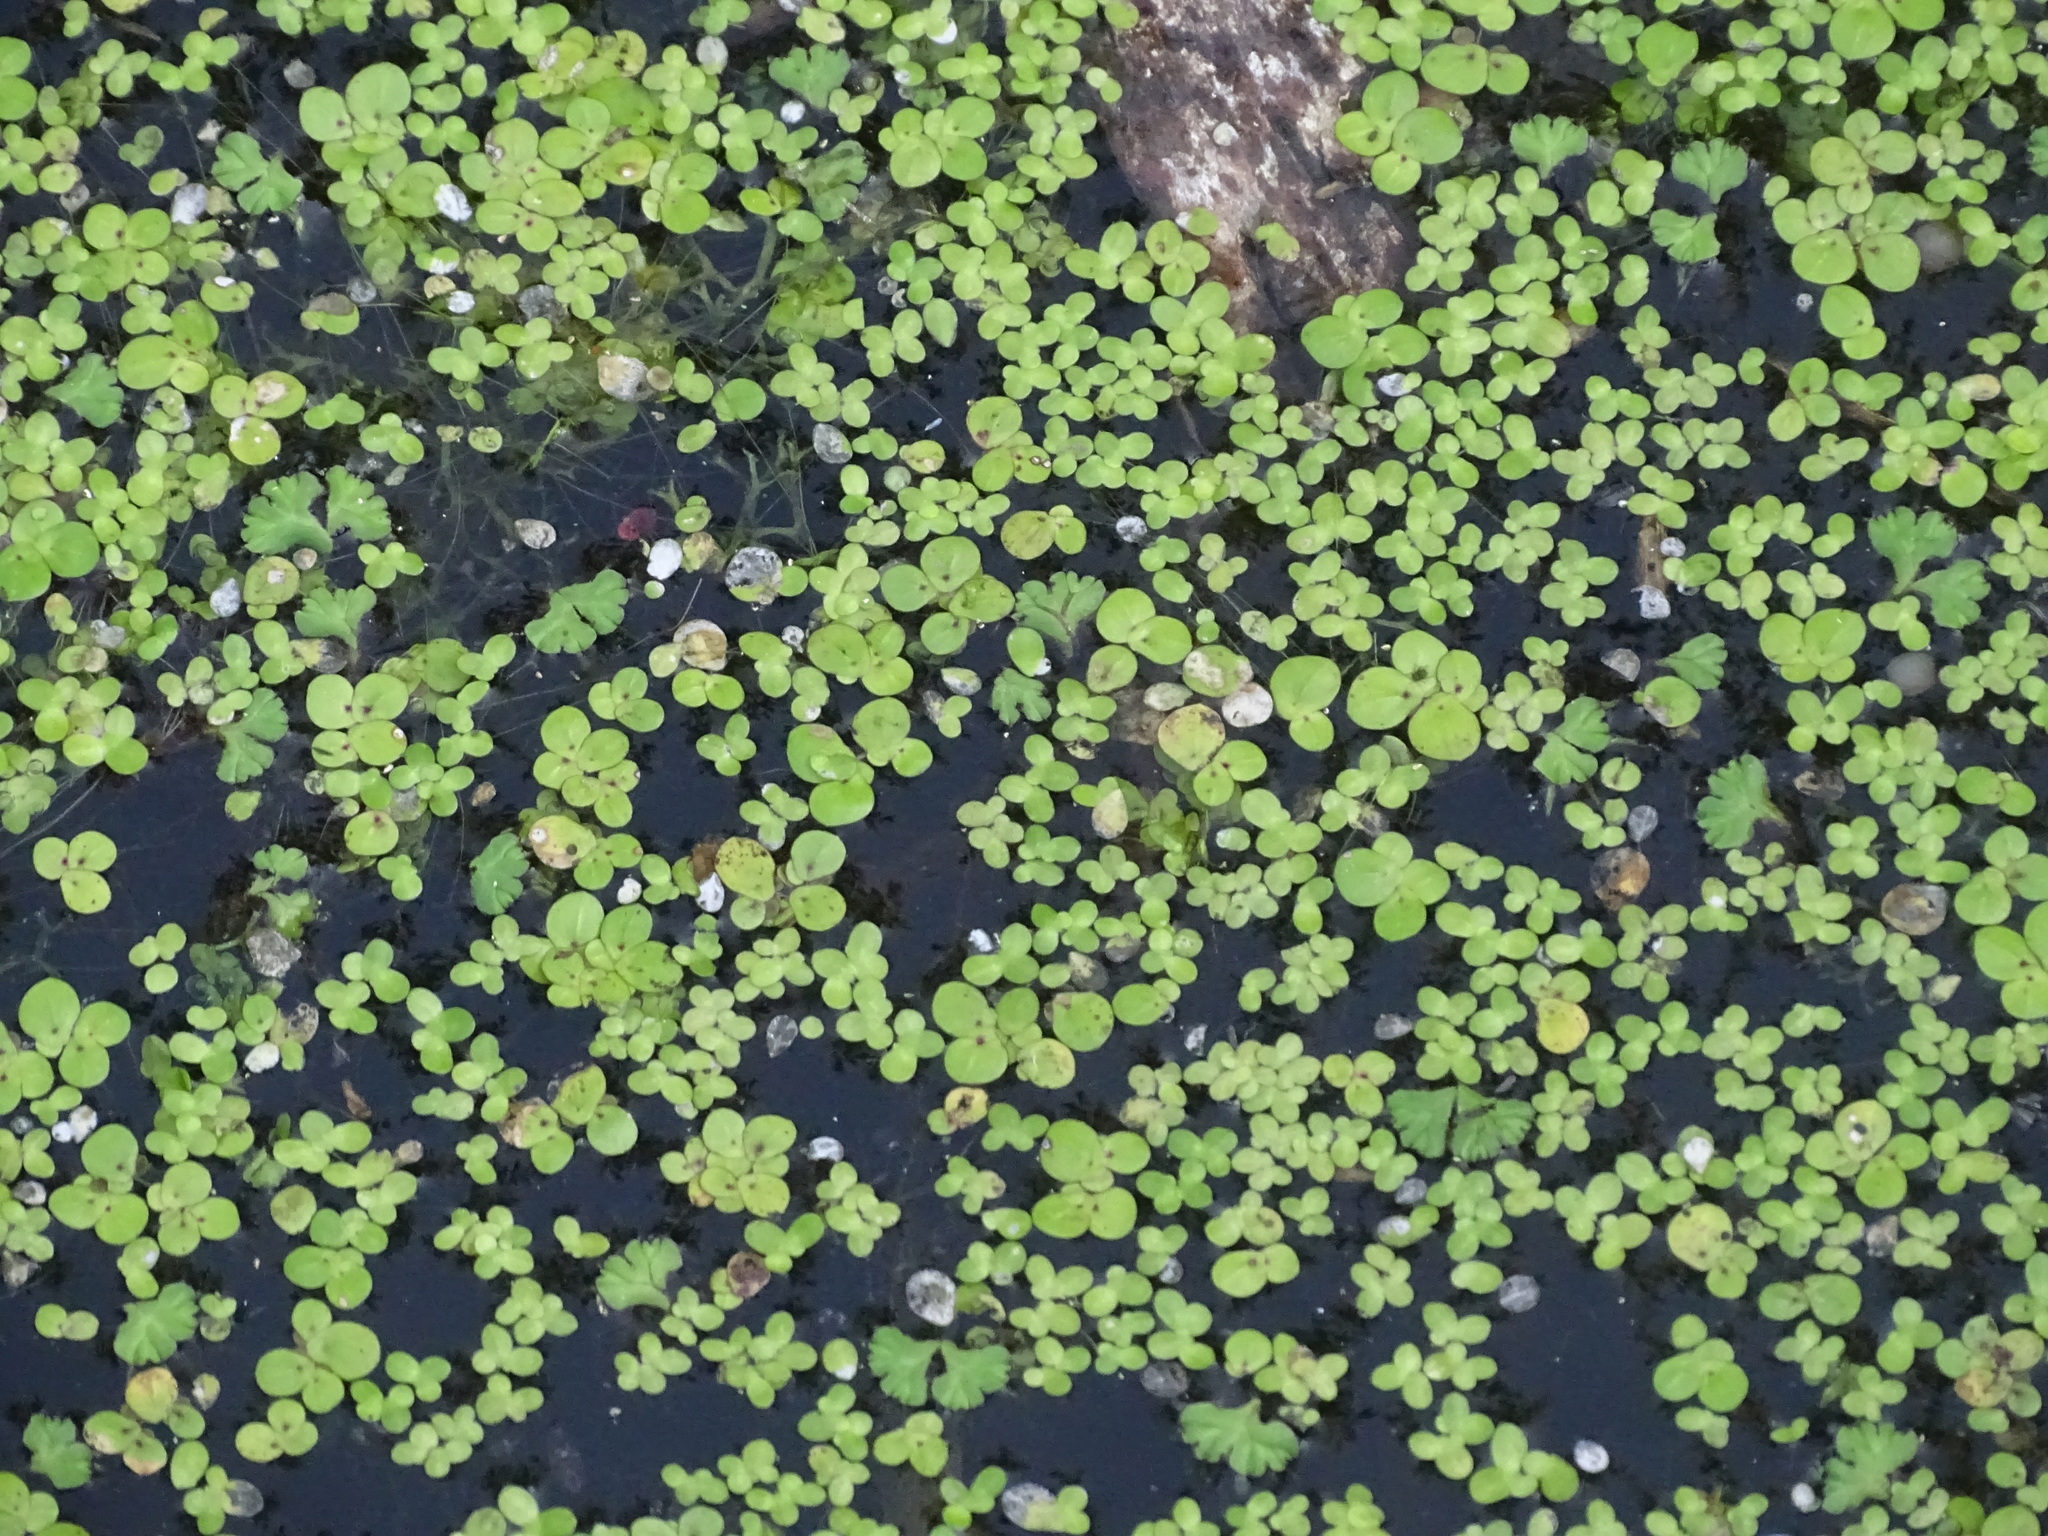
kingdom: Plantae
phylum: Tracheophyta
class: Liliopsida
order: Alismatales
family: Araceae
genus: Lemna
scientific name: Lemna minor
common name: Common duckweed
